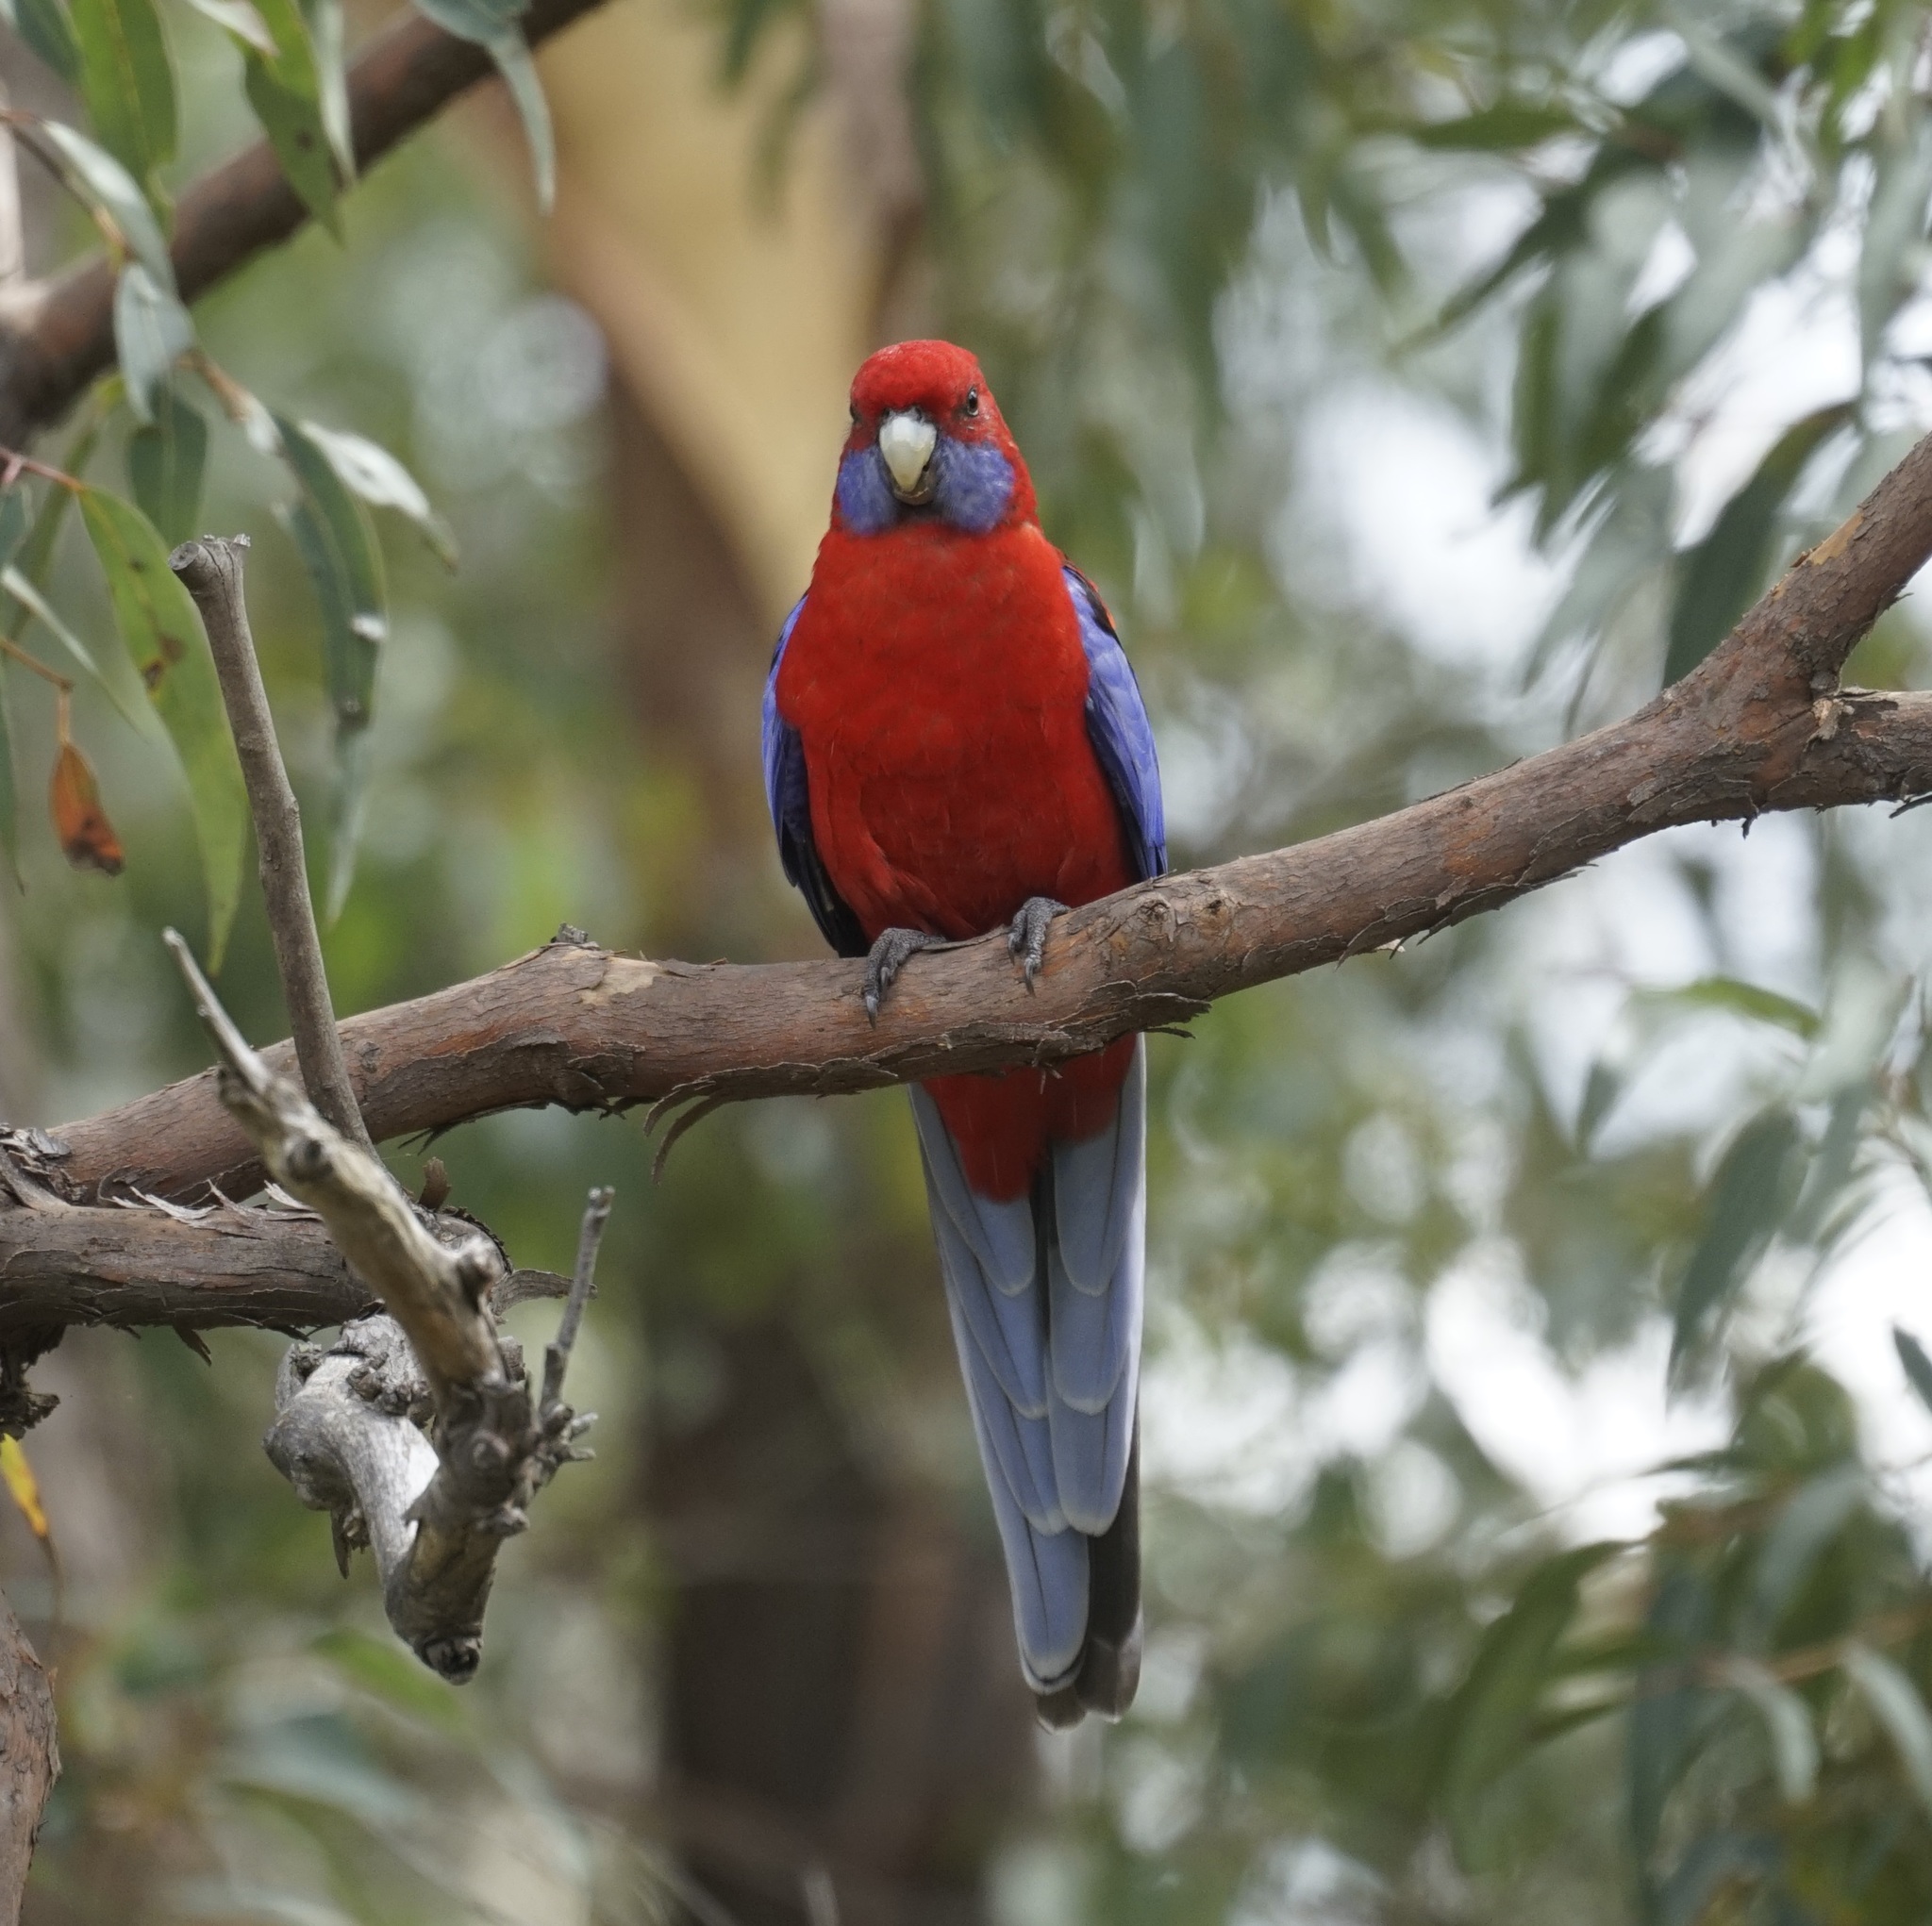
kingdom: Animalia
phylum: Chordata
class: Aves
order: Psittaciformes
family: Psittacidae
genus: Platycercus
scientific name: Platycercus elegans
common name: Crimson rosella
